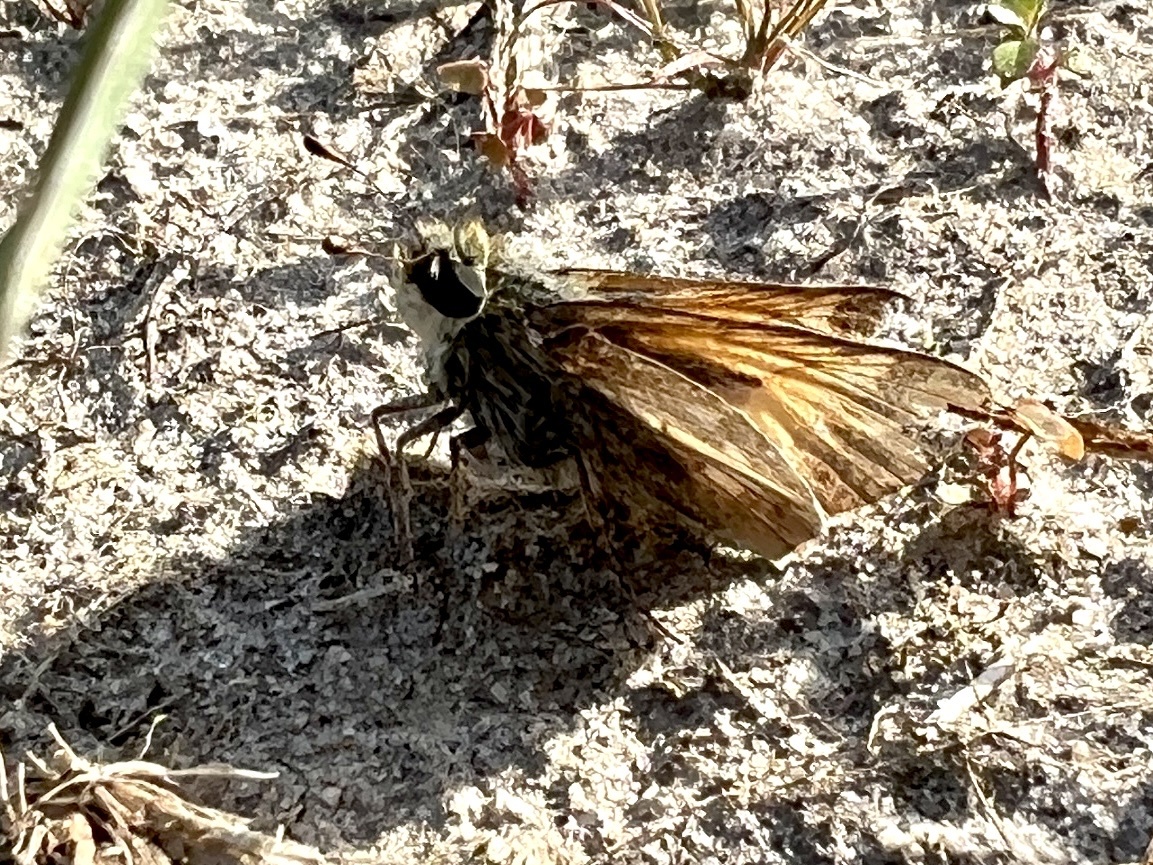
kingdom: Animalia
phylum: Arthropoda
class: Insecta
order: Lepidoptera
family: Hesperiidae
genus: Atalopedes
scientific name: Atalopedes
